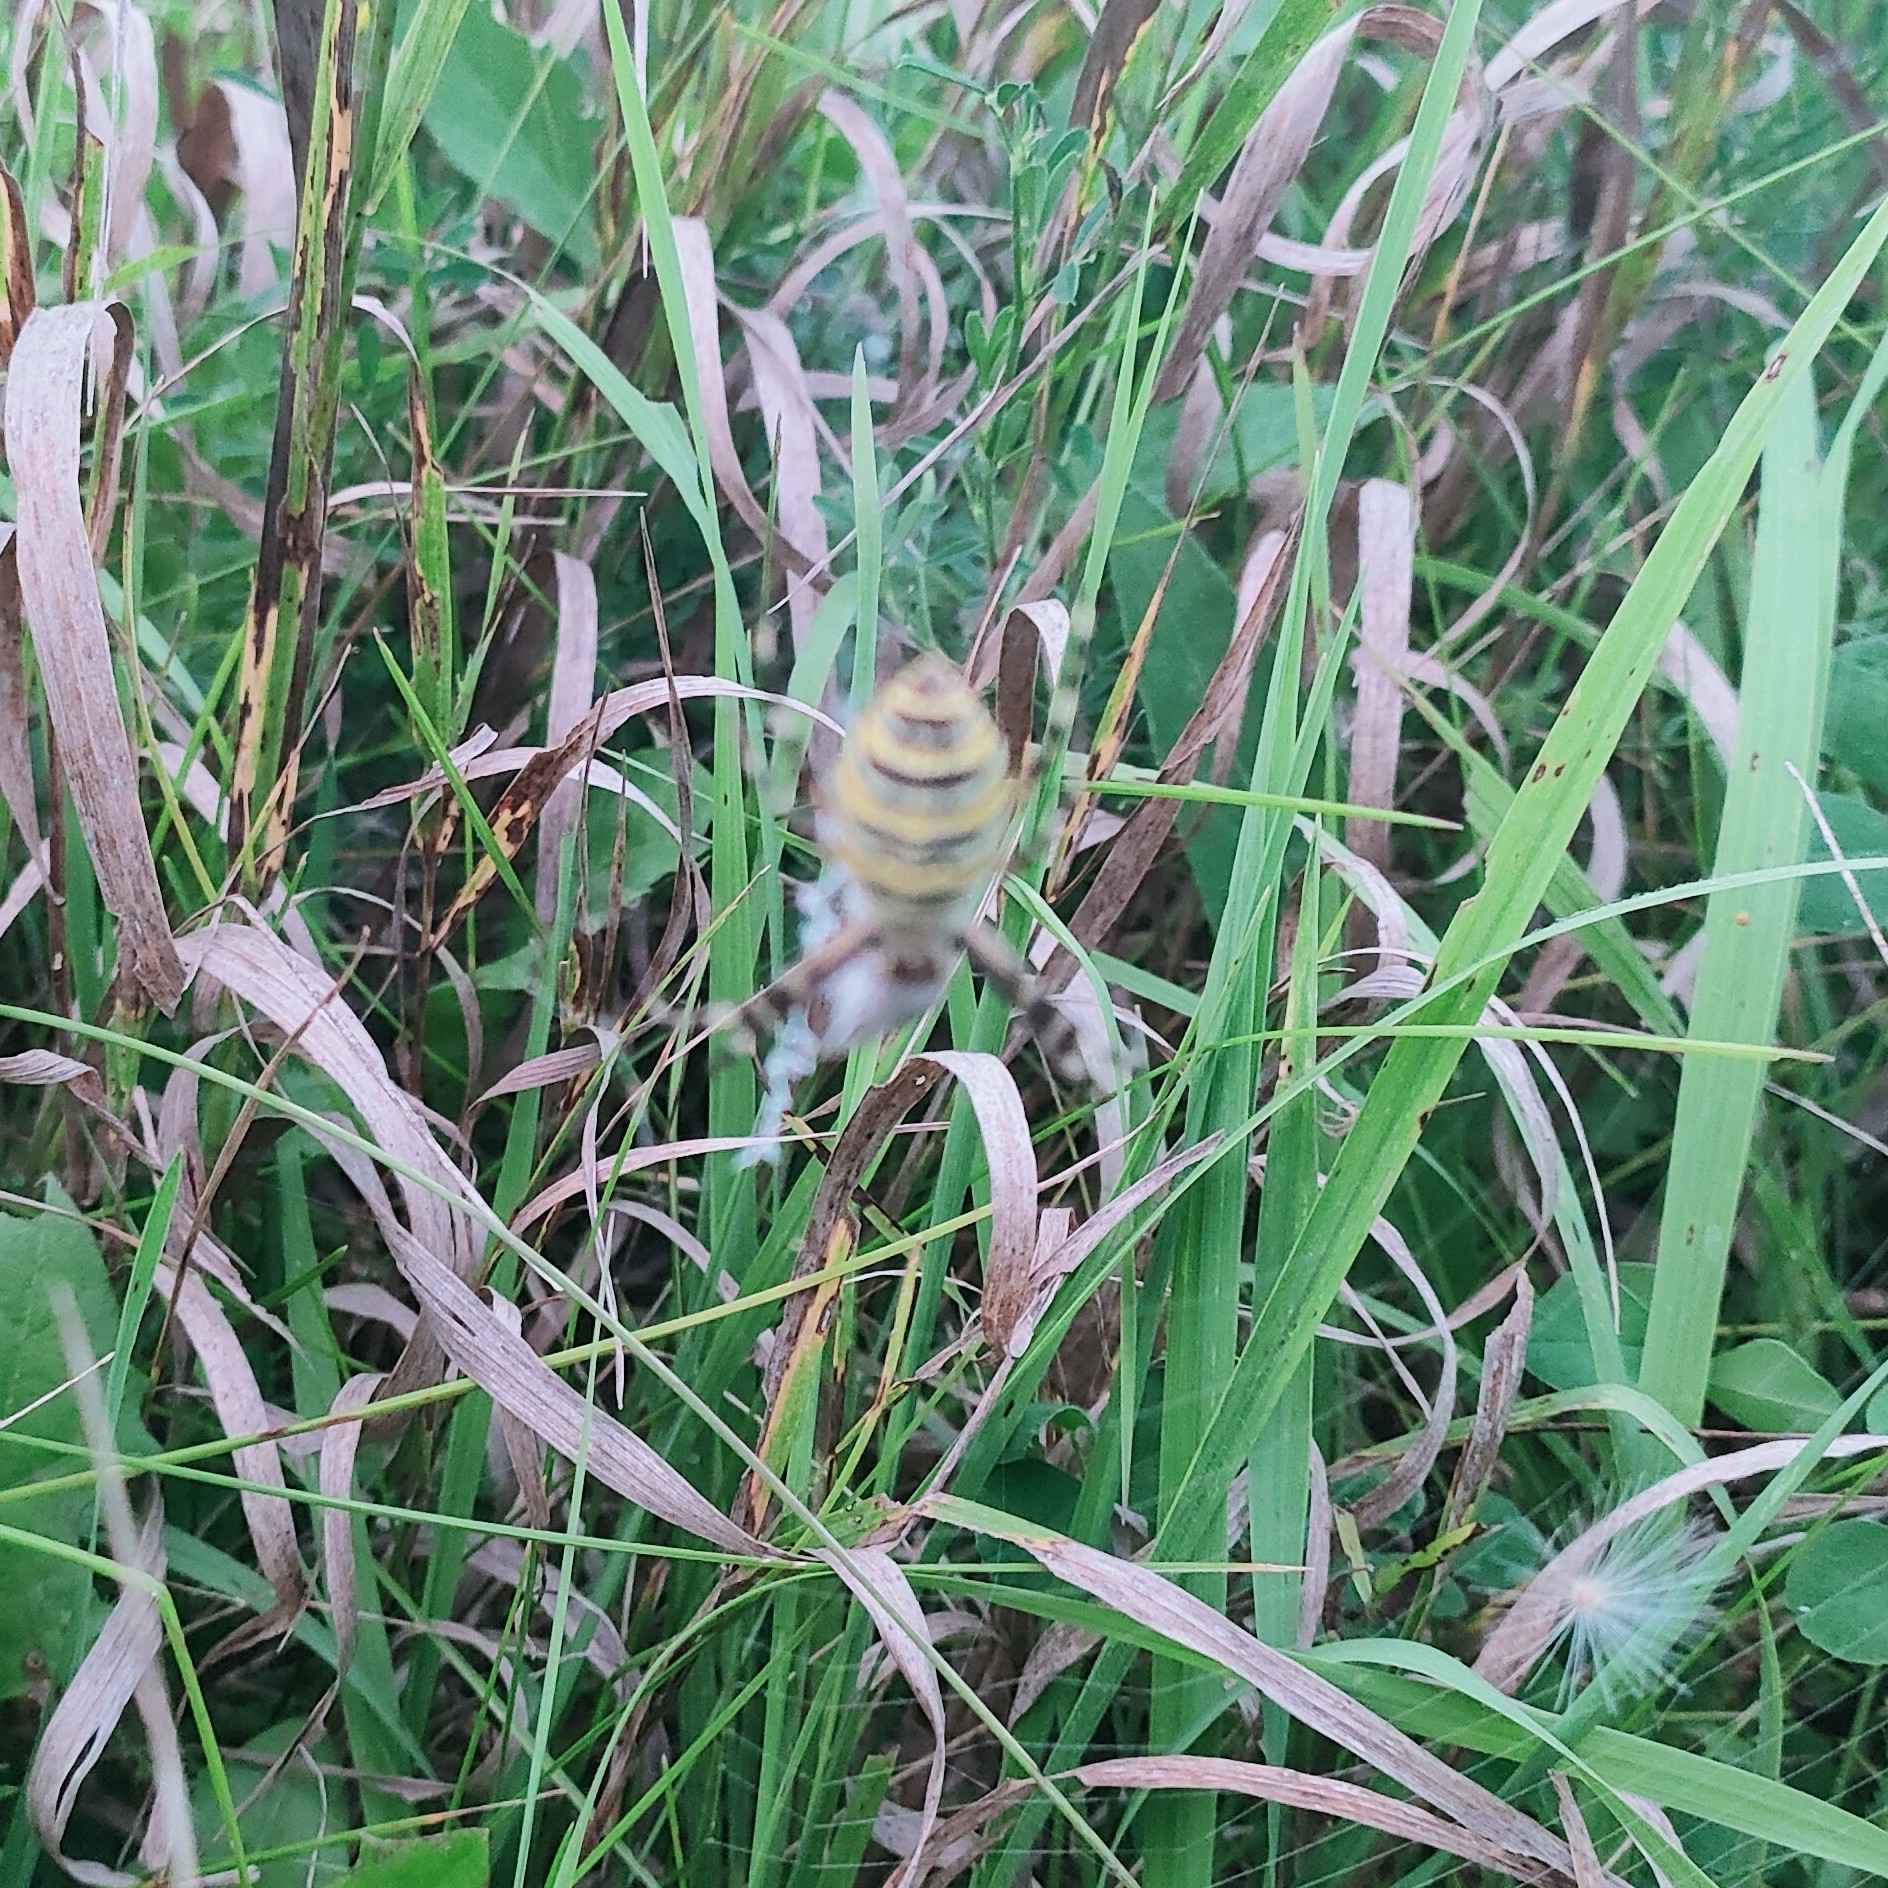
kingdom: Animalia
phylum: Arthropoda
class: Arachnida
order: Araneae
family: Araneidae
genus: Argiope
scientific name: Argiope bruennichi
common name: Wasp spider
